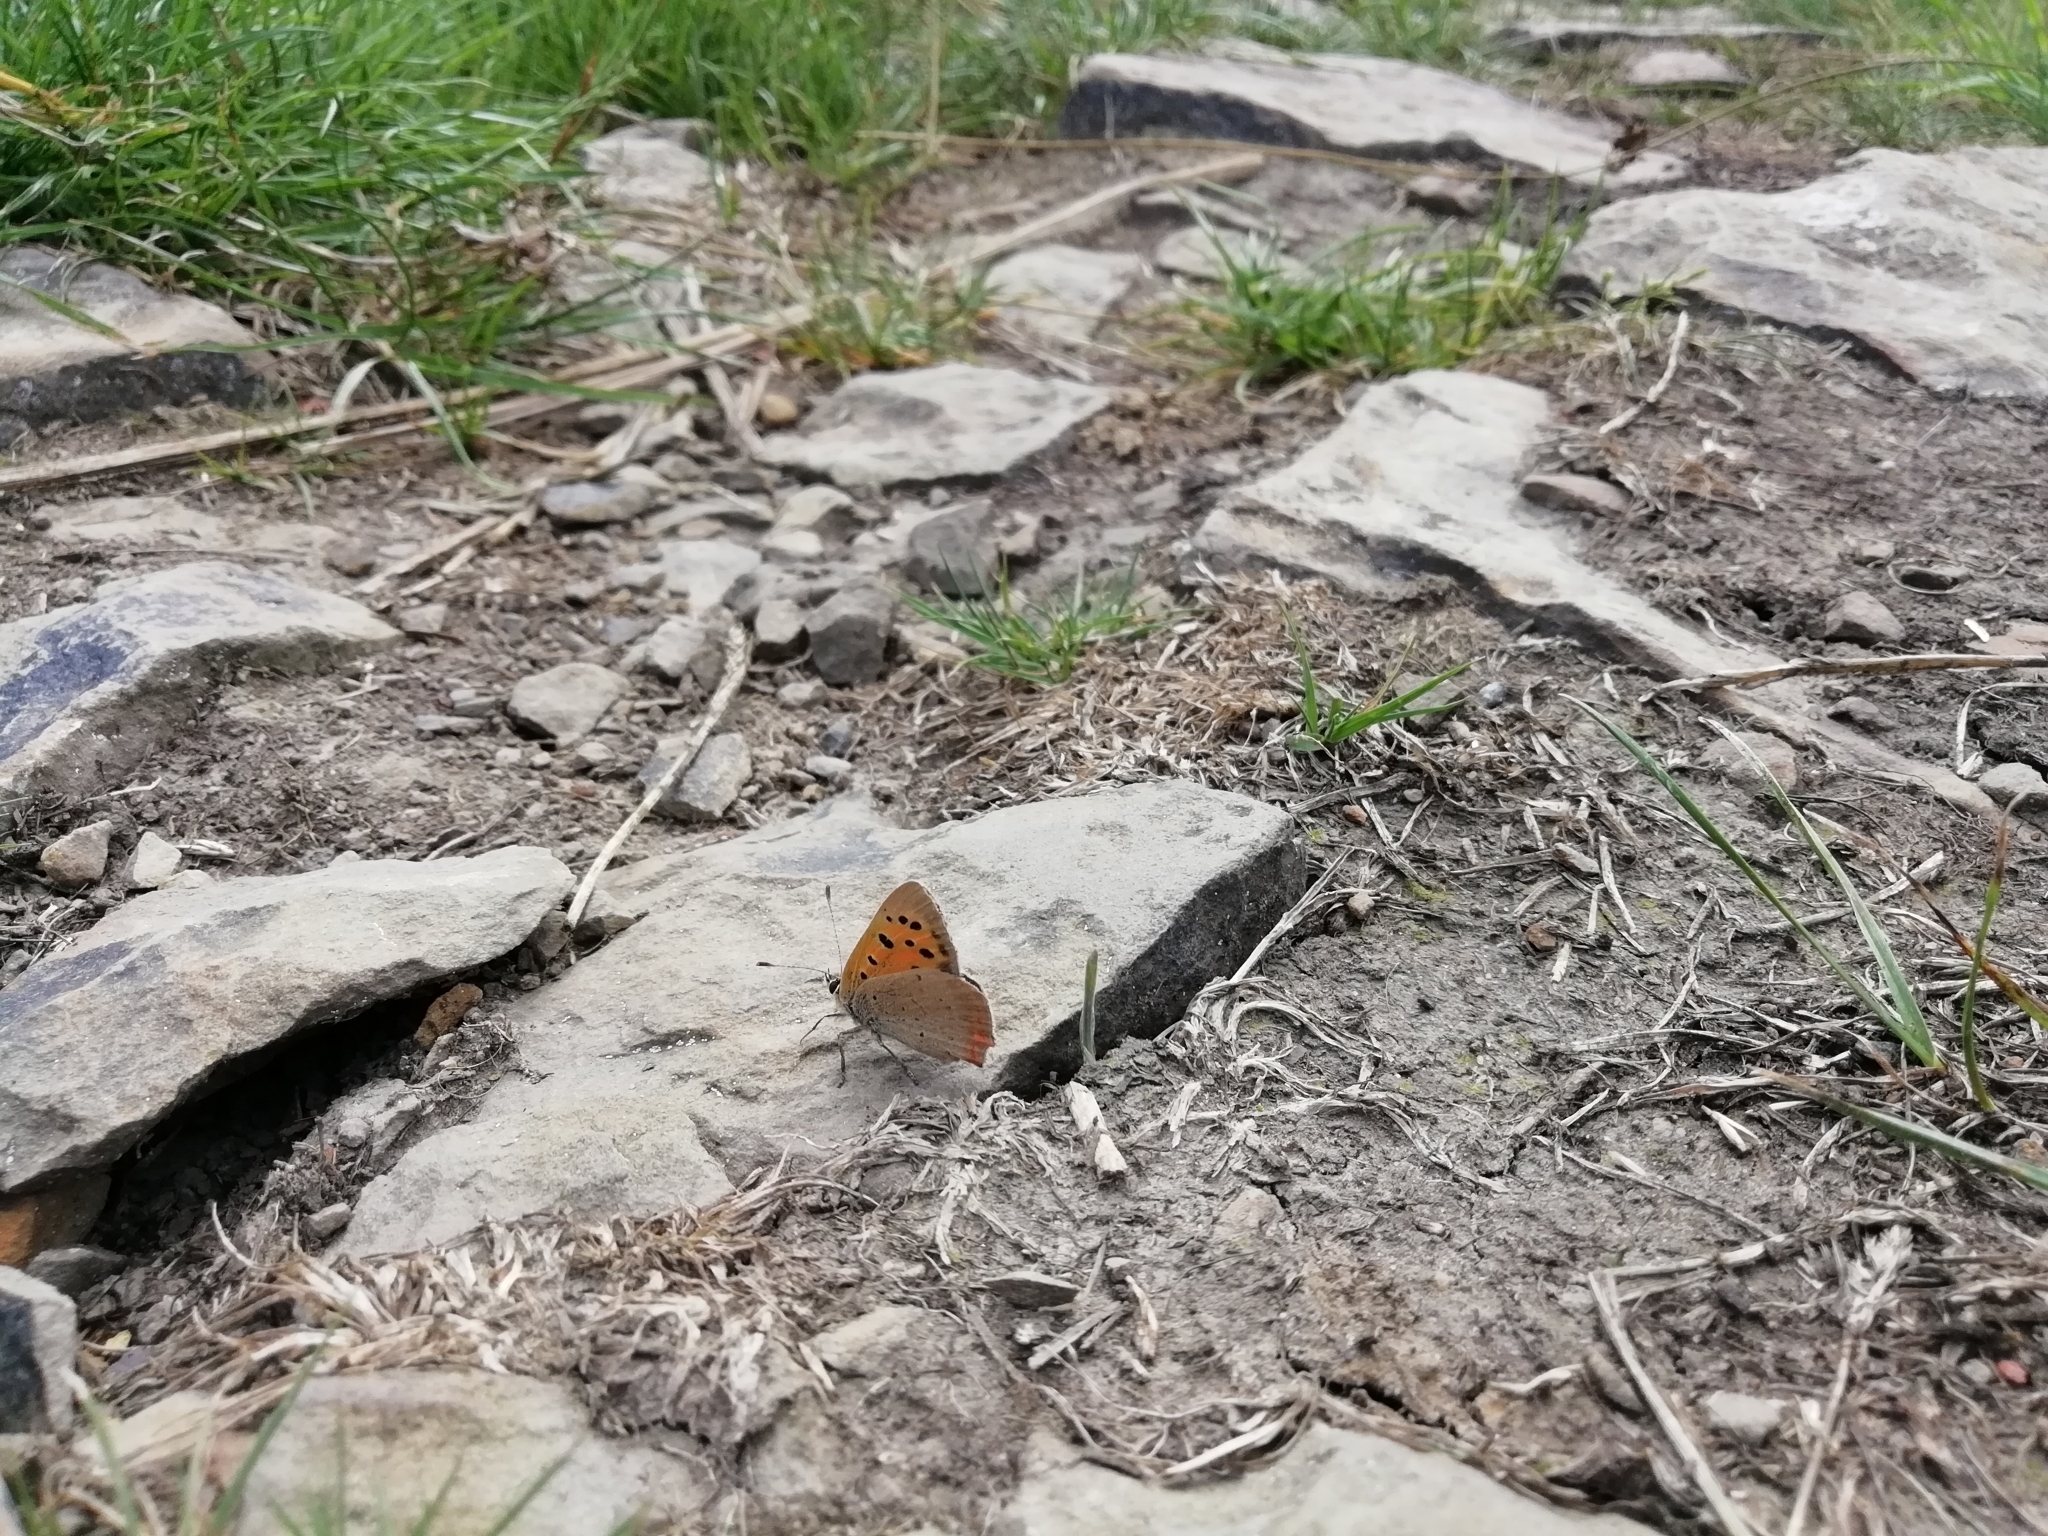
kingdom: Animalia
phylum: Arthropoda
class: Insecta
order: Lepidoptera
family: Lycaenidae
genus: Lycaena
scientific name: Lycaena phlaeas
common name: Small copper
